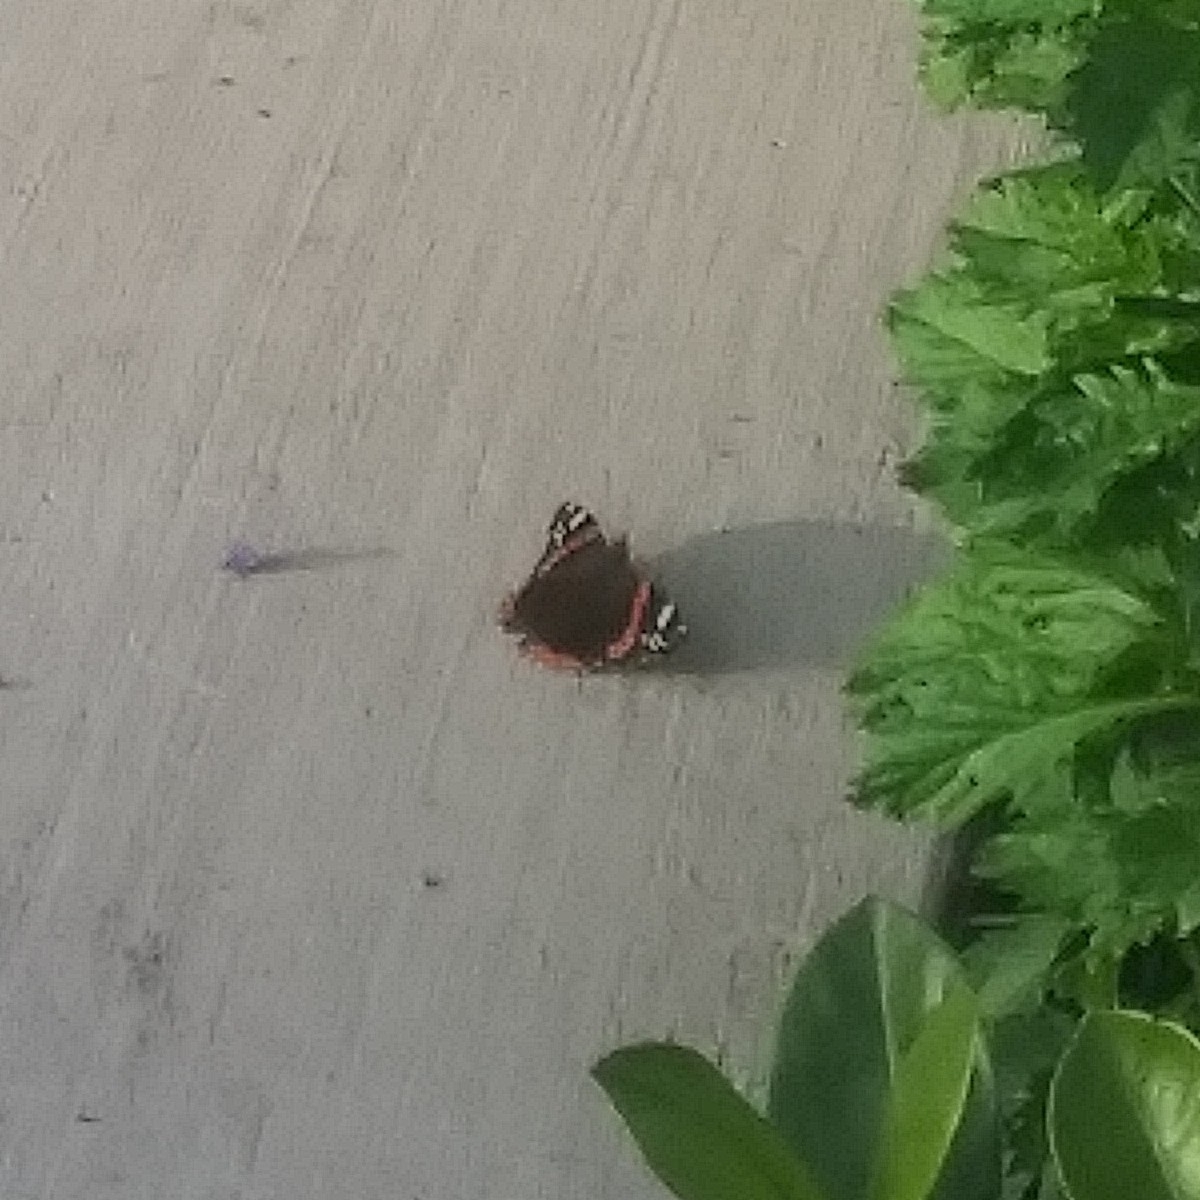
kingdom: Animalia
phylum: Arthropoda
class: Insecta
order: Lepidoptera
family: Nymphalidae
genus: Vanessa
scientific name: Vanessa atalanta
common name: Red admiral
